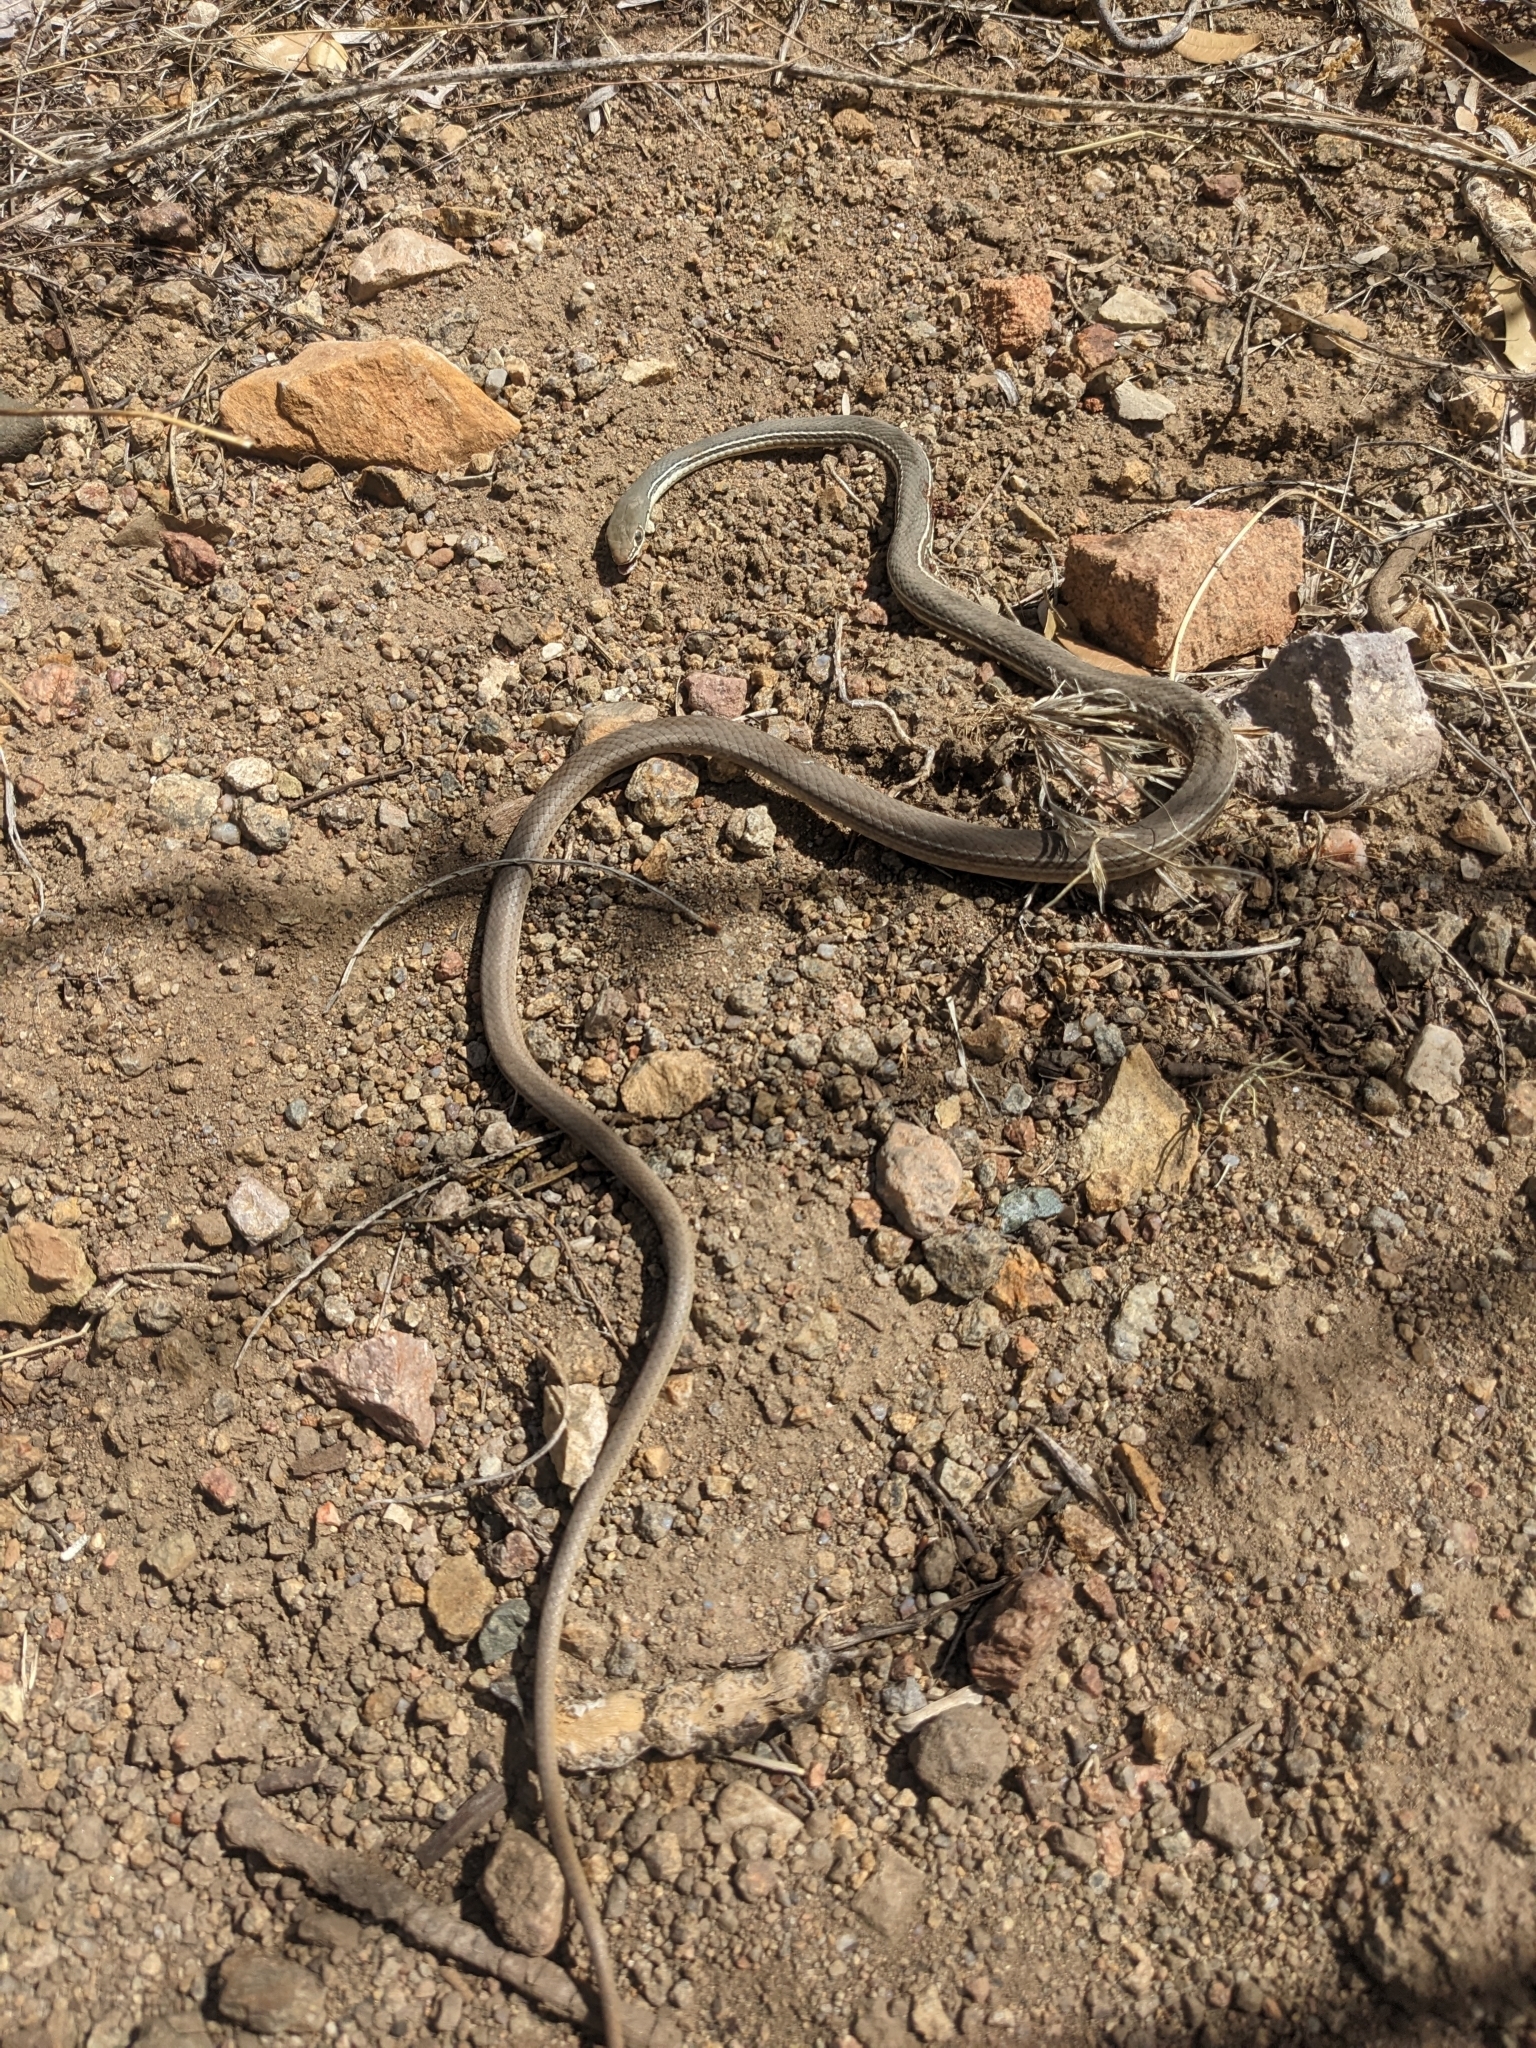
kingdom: Animalia
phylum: Chordata
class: Squamata
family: Colubridae
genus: Masticophis
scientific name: Masticophis bilineatus
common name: Sonoran whipsnake
